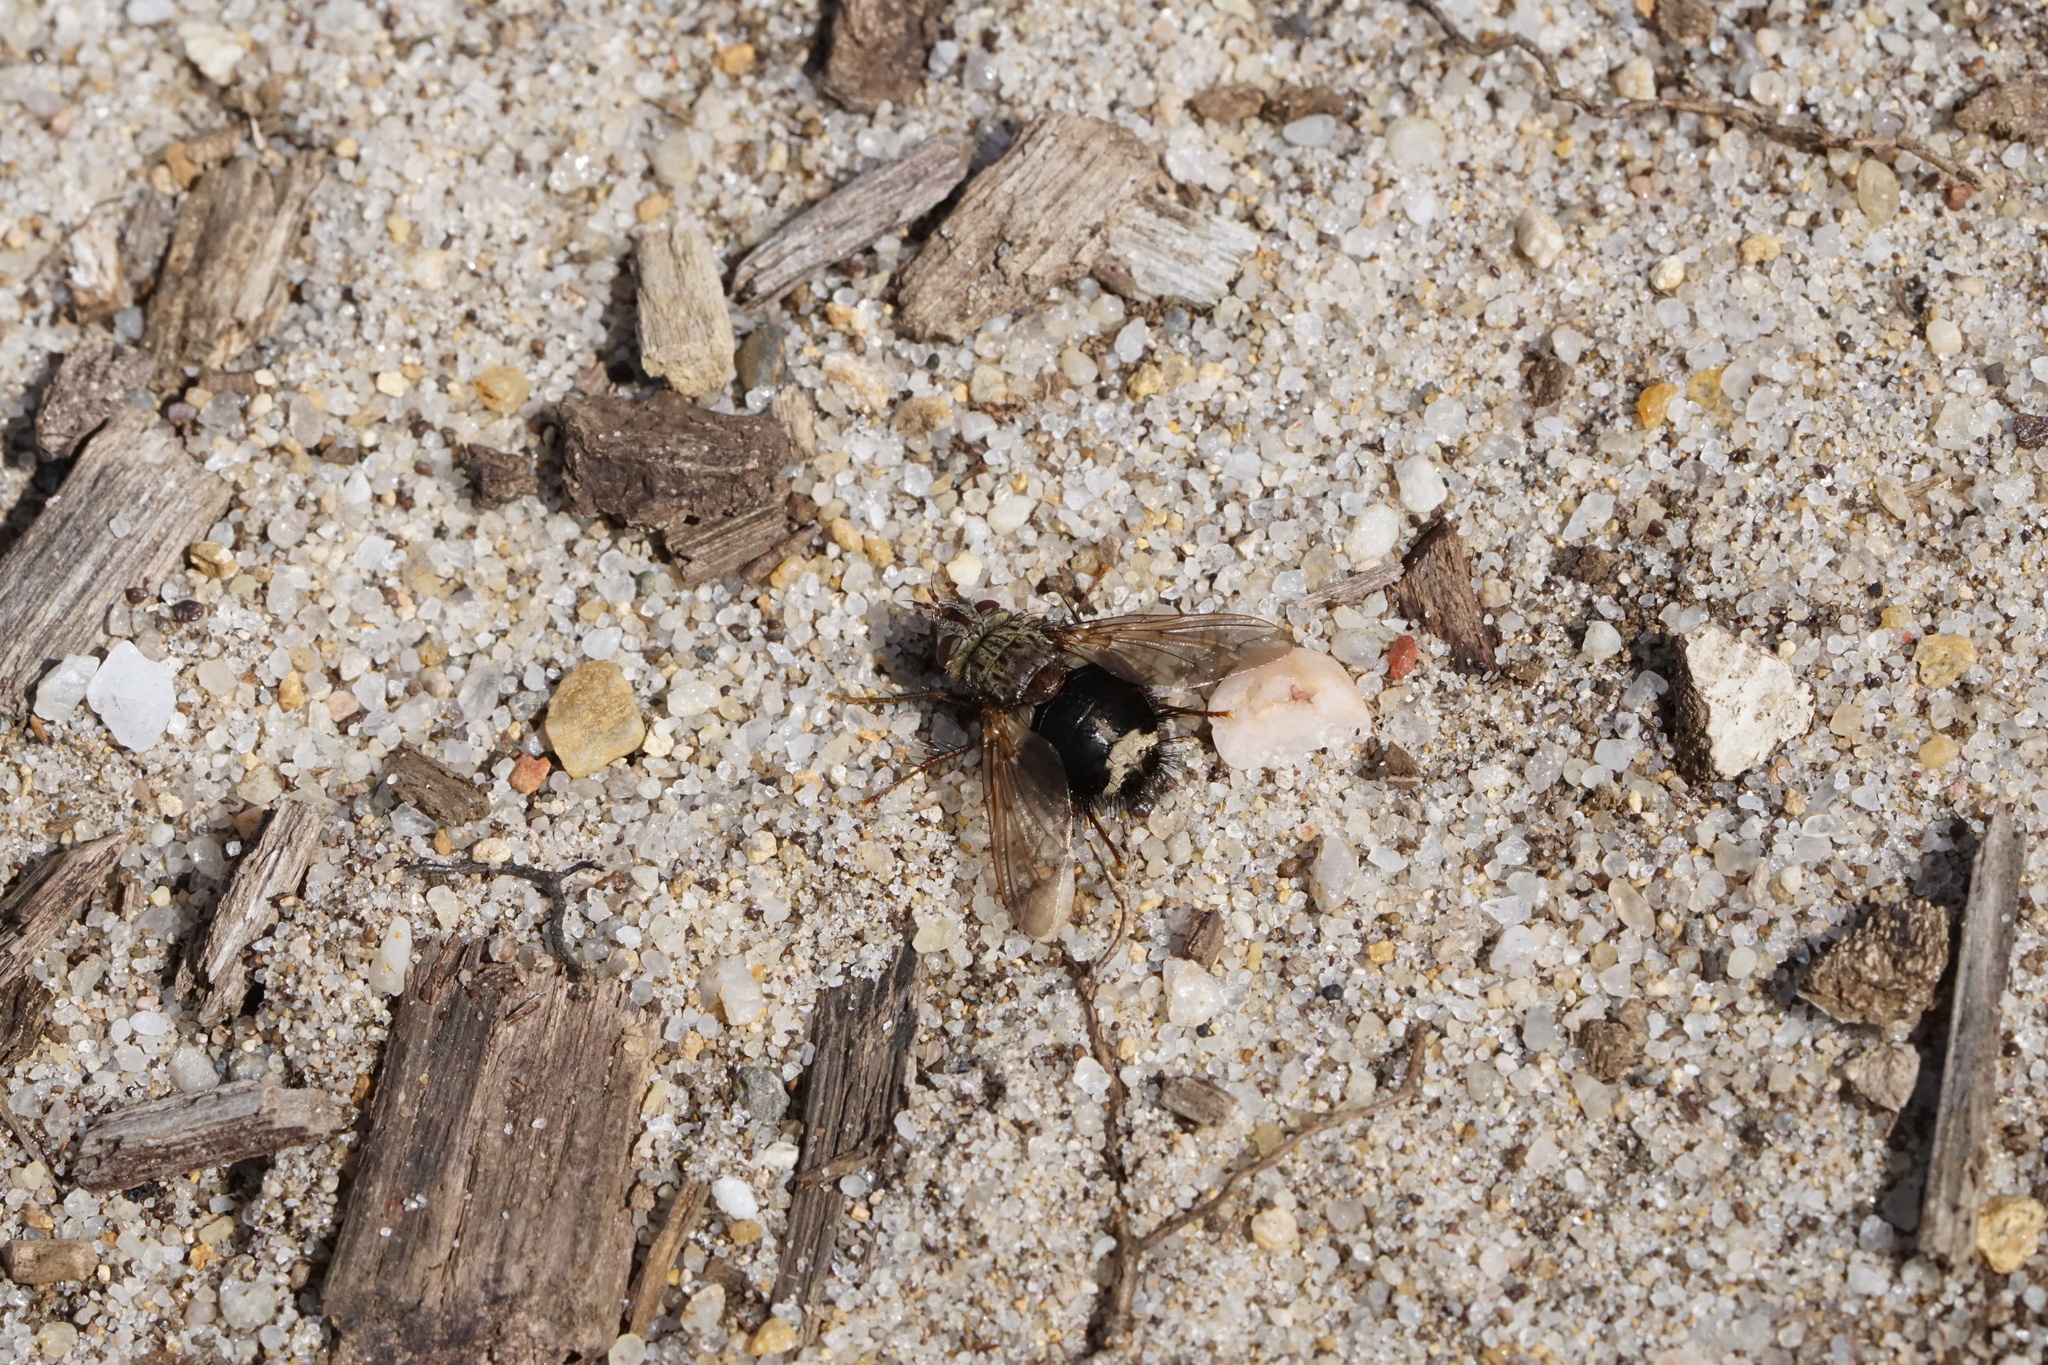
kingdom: Animalia
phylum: Arthropoda
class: Insecta
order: Diptera
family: Tachinidae
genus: Epalpus
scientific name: Epalpus signifer
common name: Early tachinid fly
